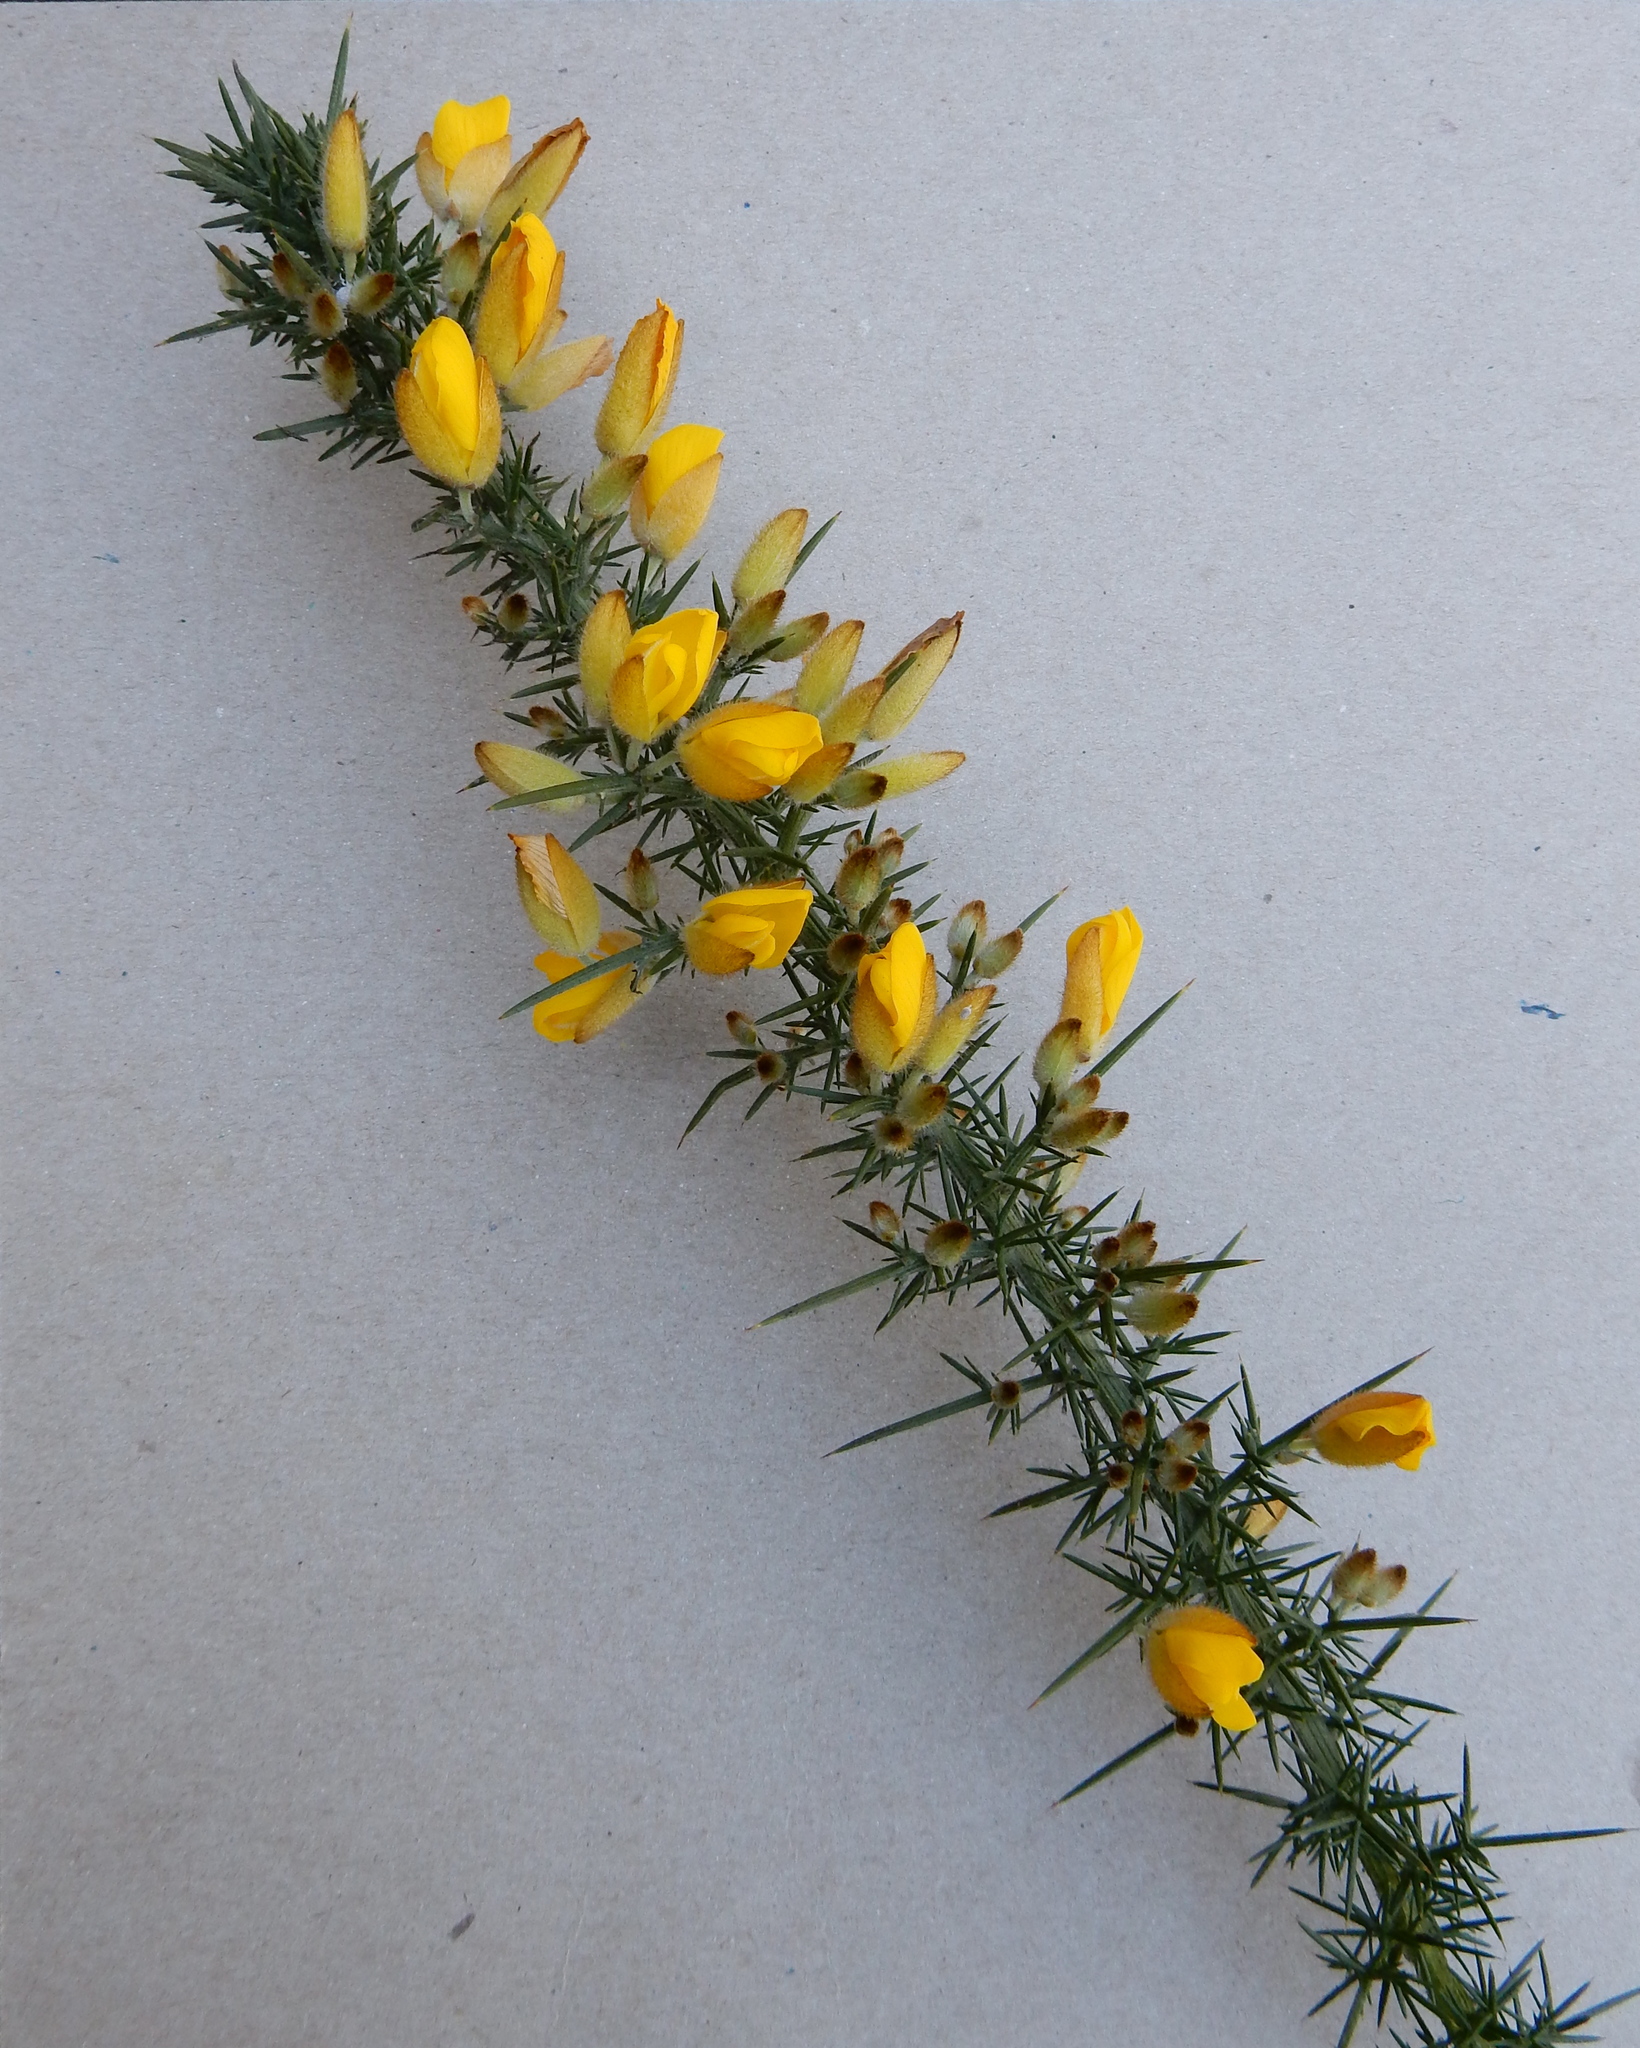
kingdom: Plantae
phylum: Tracheophyta
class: Magnoliopsida
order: Fabales
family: Fabaceae
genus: Ulex
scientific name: Ulex europaeus
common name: Common gorse
